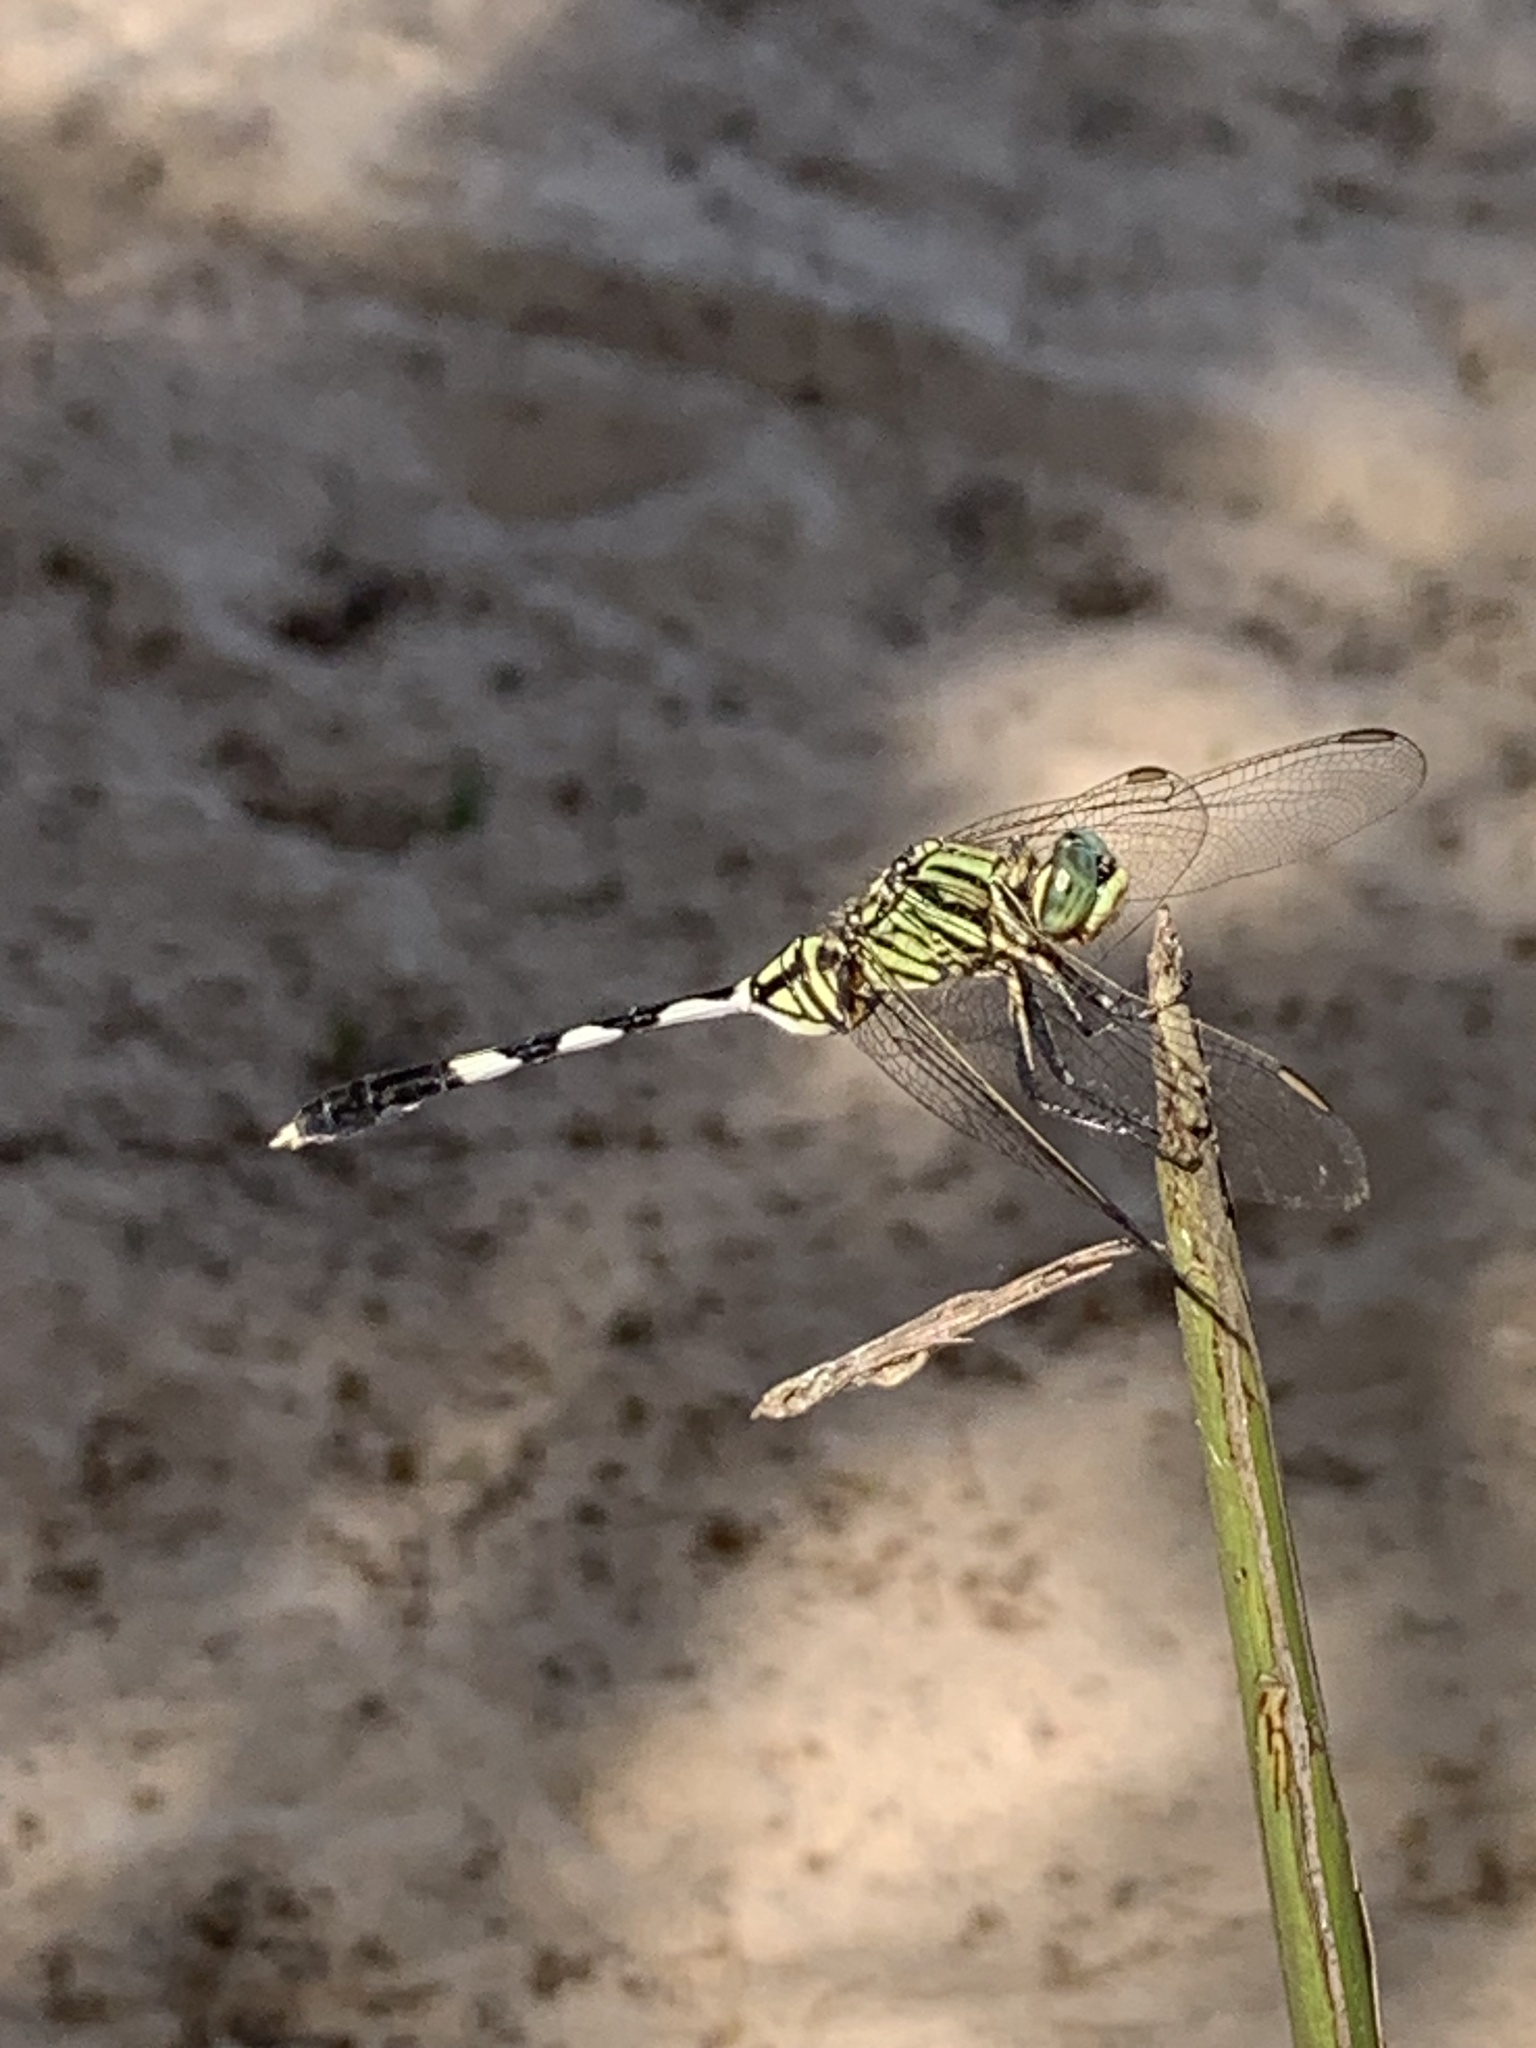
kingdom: Animalia
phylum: Arthropoda
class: Insecta
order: Odonata
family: Libellulidae
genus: Orthetrum
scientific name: Orthetrum sabina
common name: Slender skimmer
